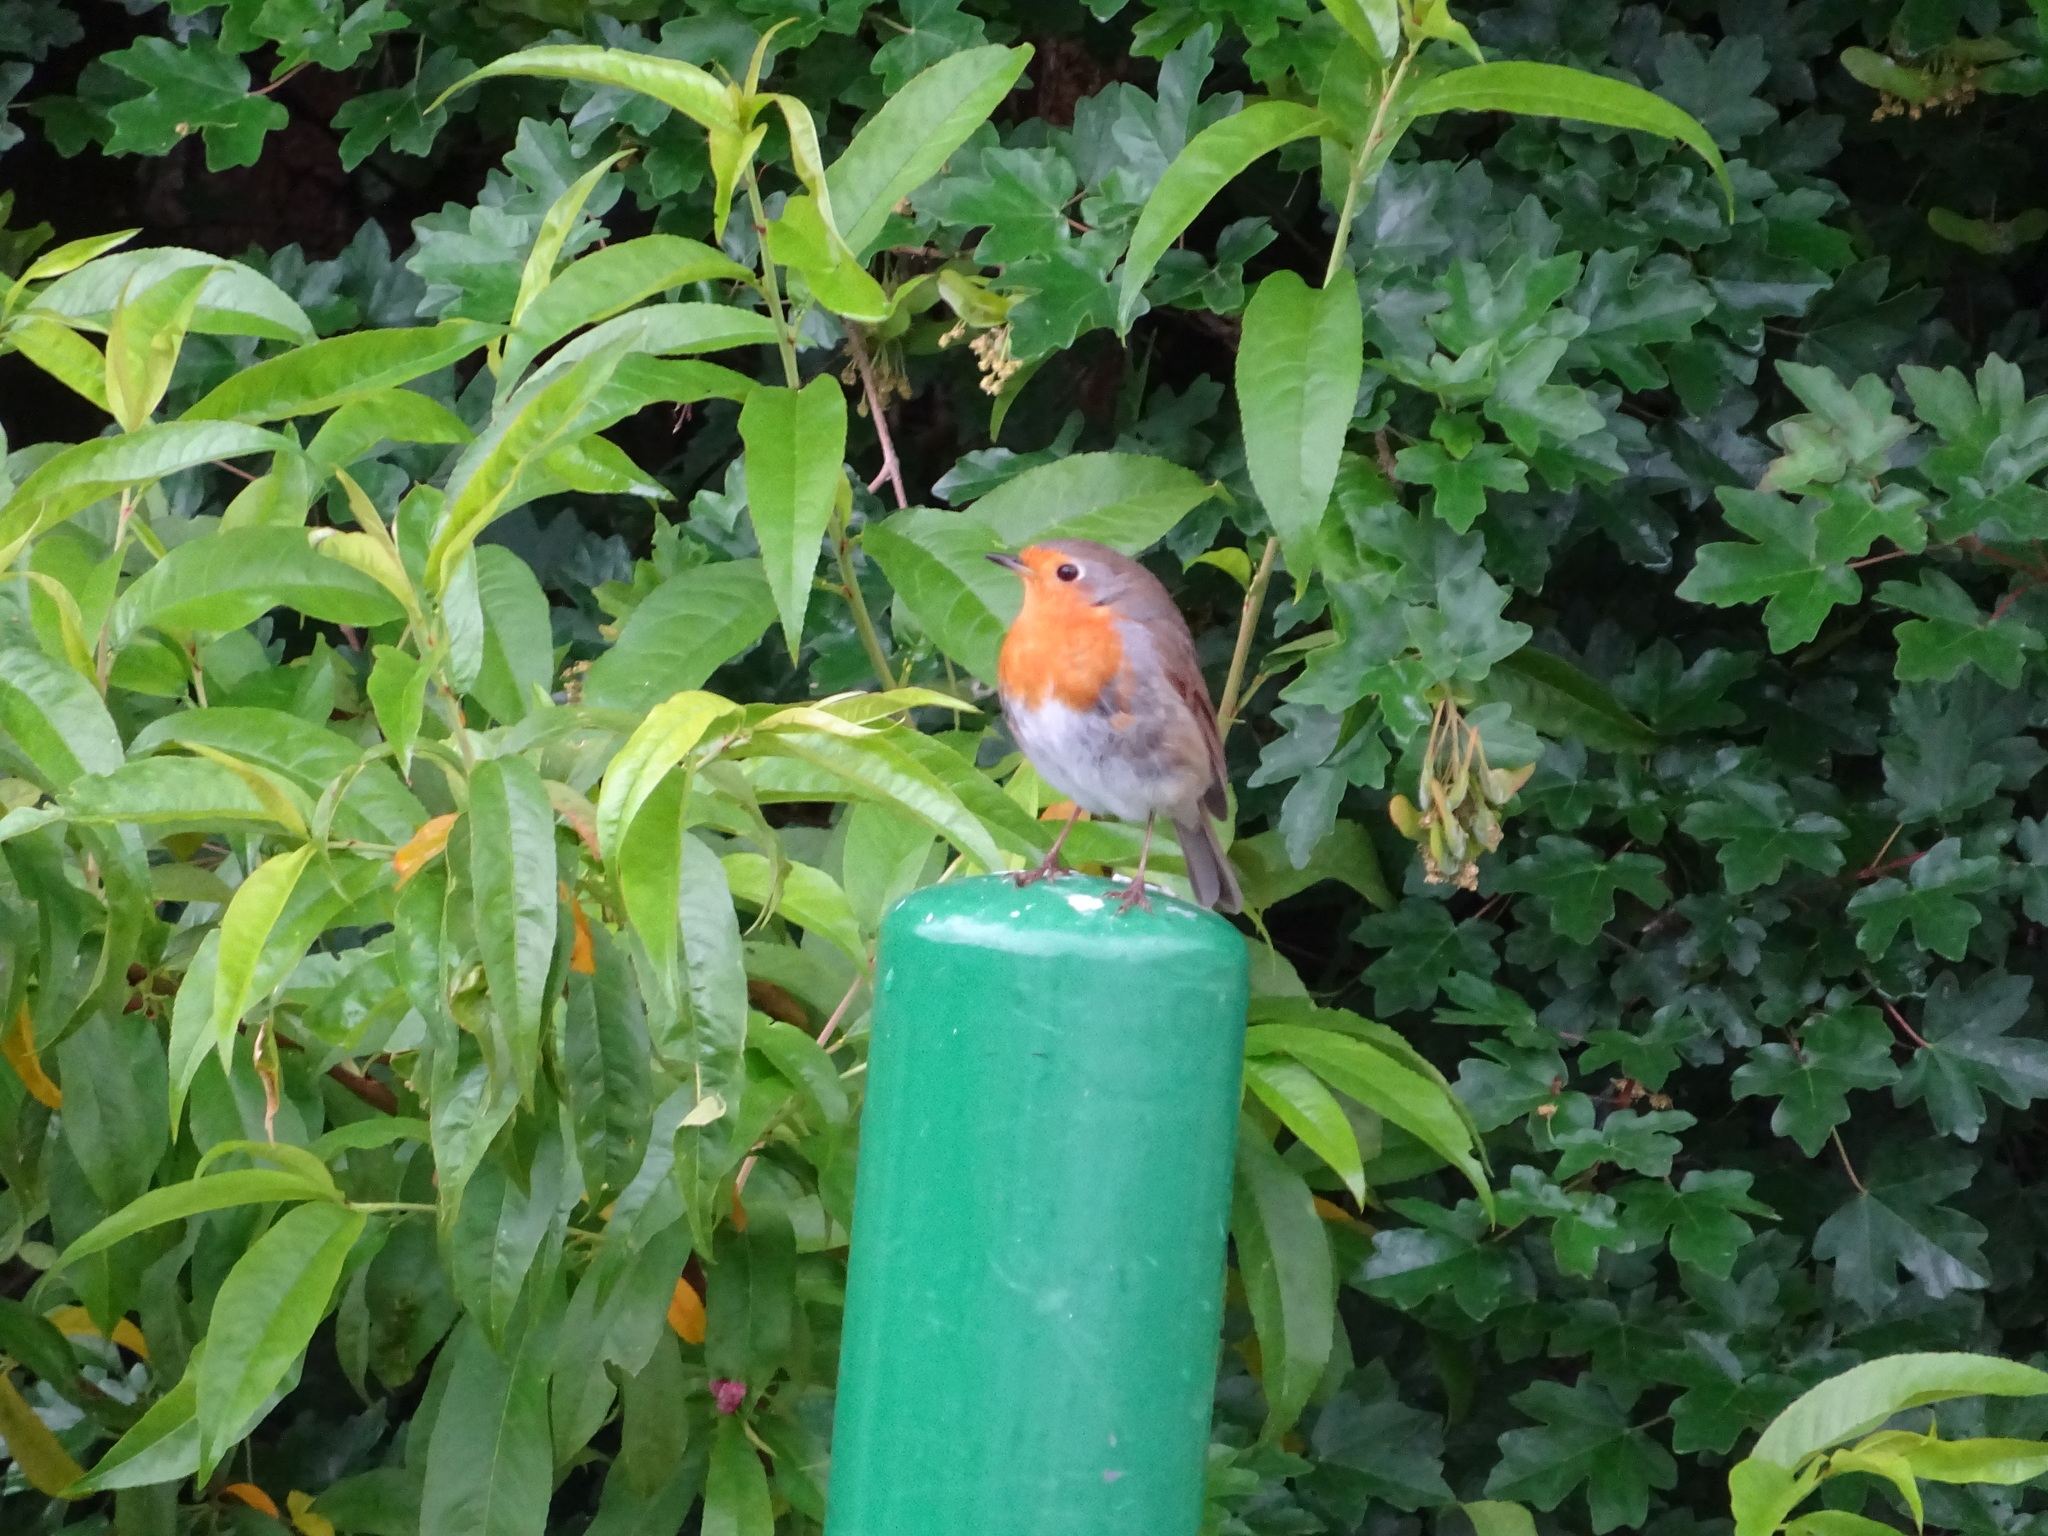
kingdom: Animalia
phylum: Chordata
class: Aves
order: Passeriformes
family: Muscicapidae
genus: Erithacus
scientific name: Erithacus rubecula
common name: European robin
